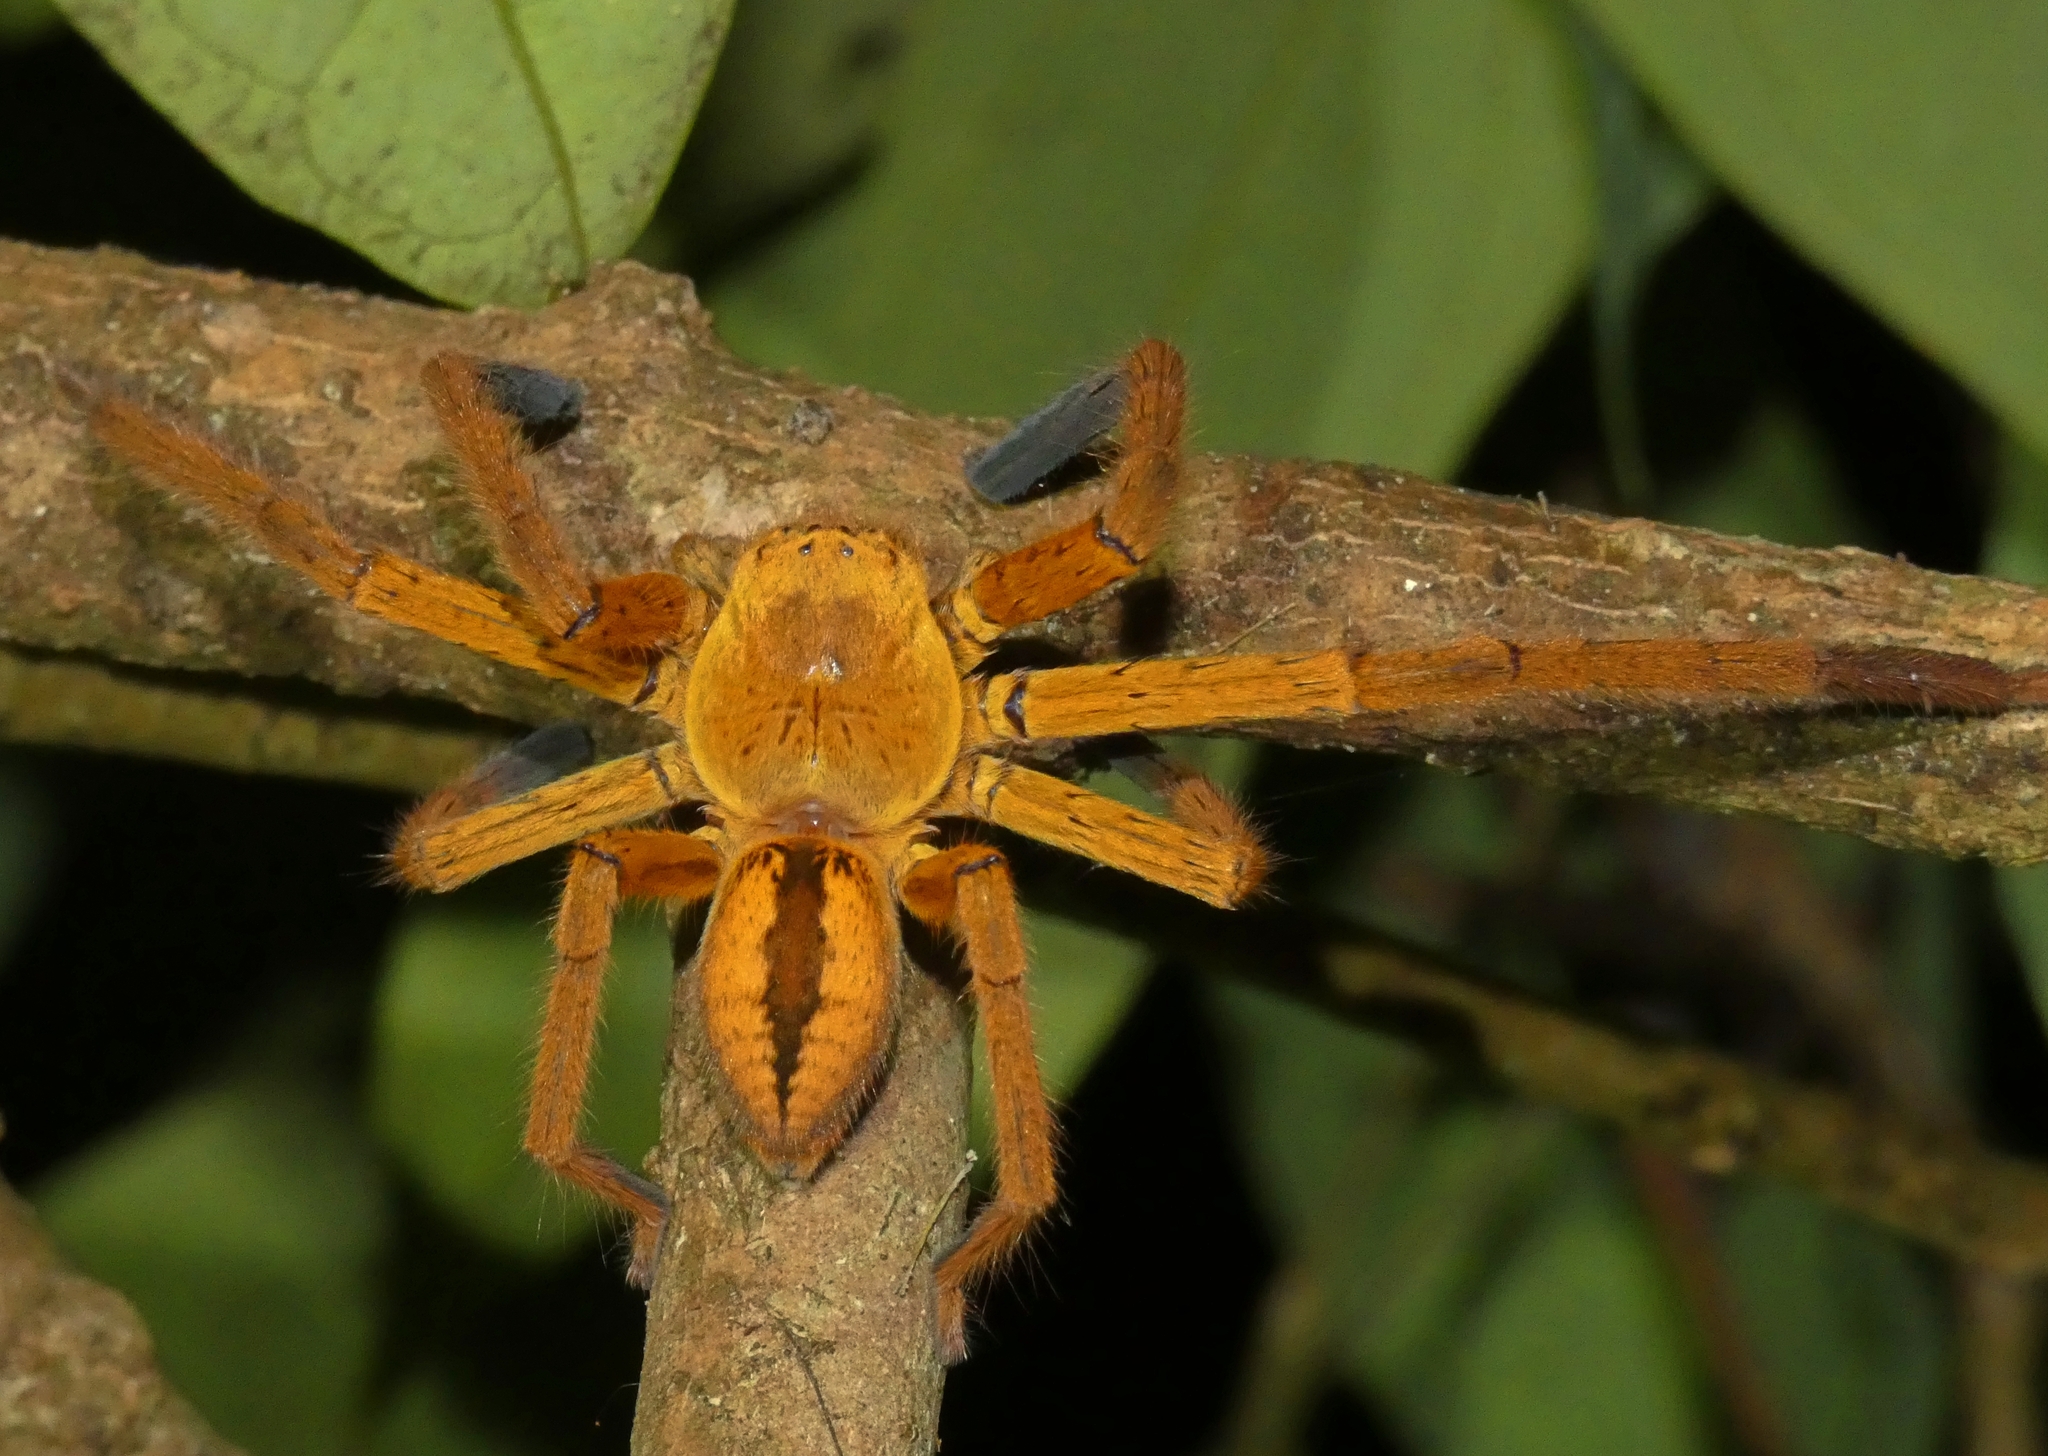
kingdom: Animalia
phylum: Arthropoda
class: Arachnida
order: Araneae
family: Sparassidae
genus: Beregama
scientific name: Beregama cordata
